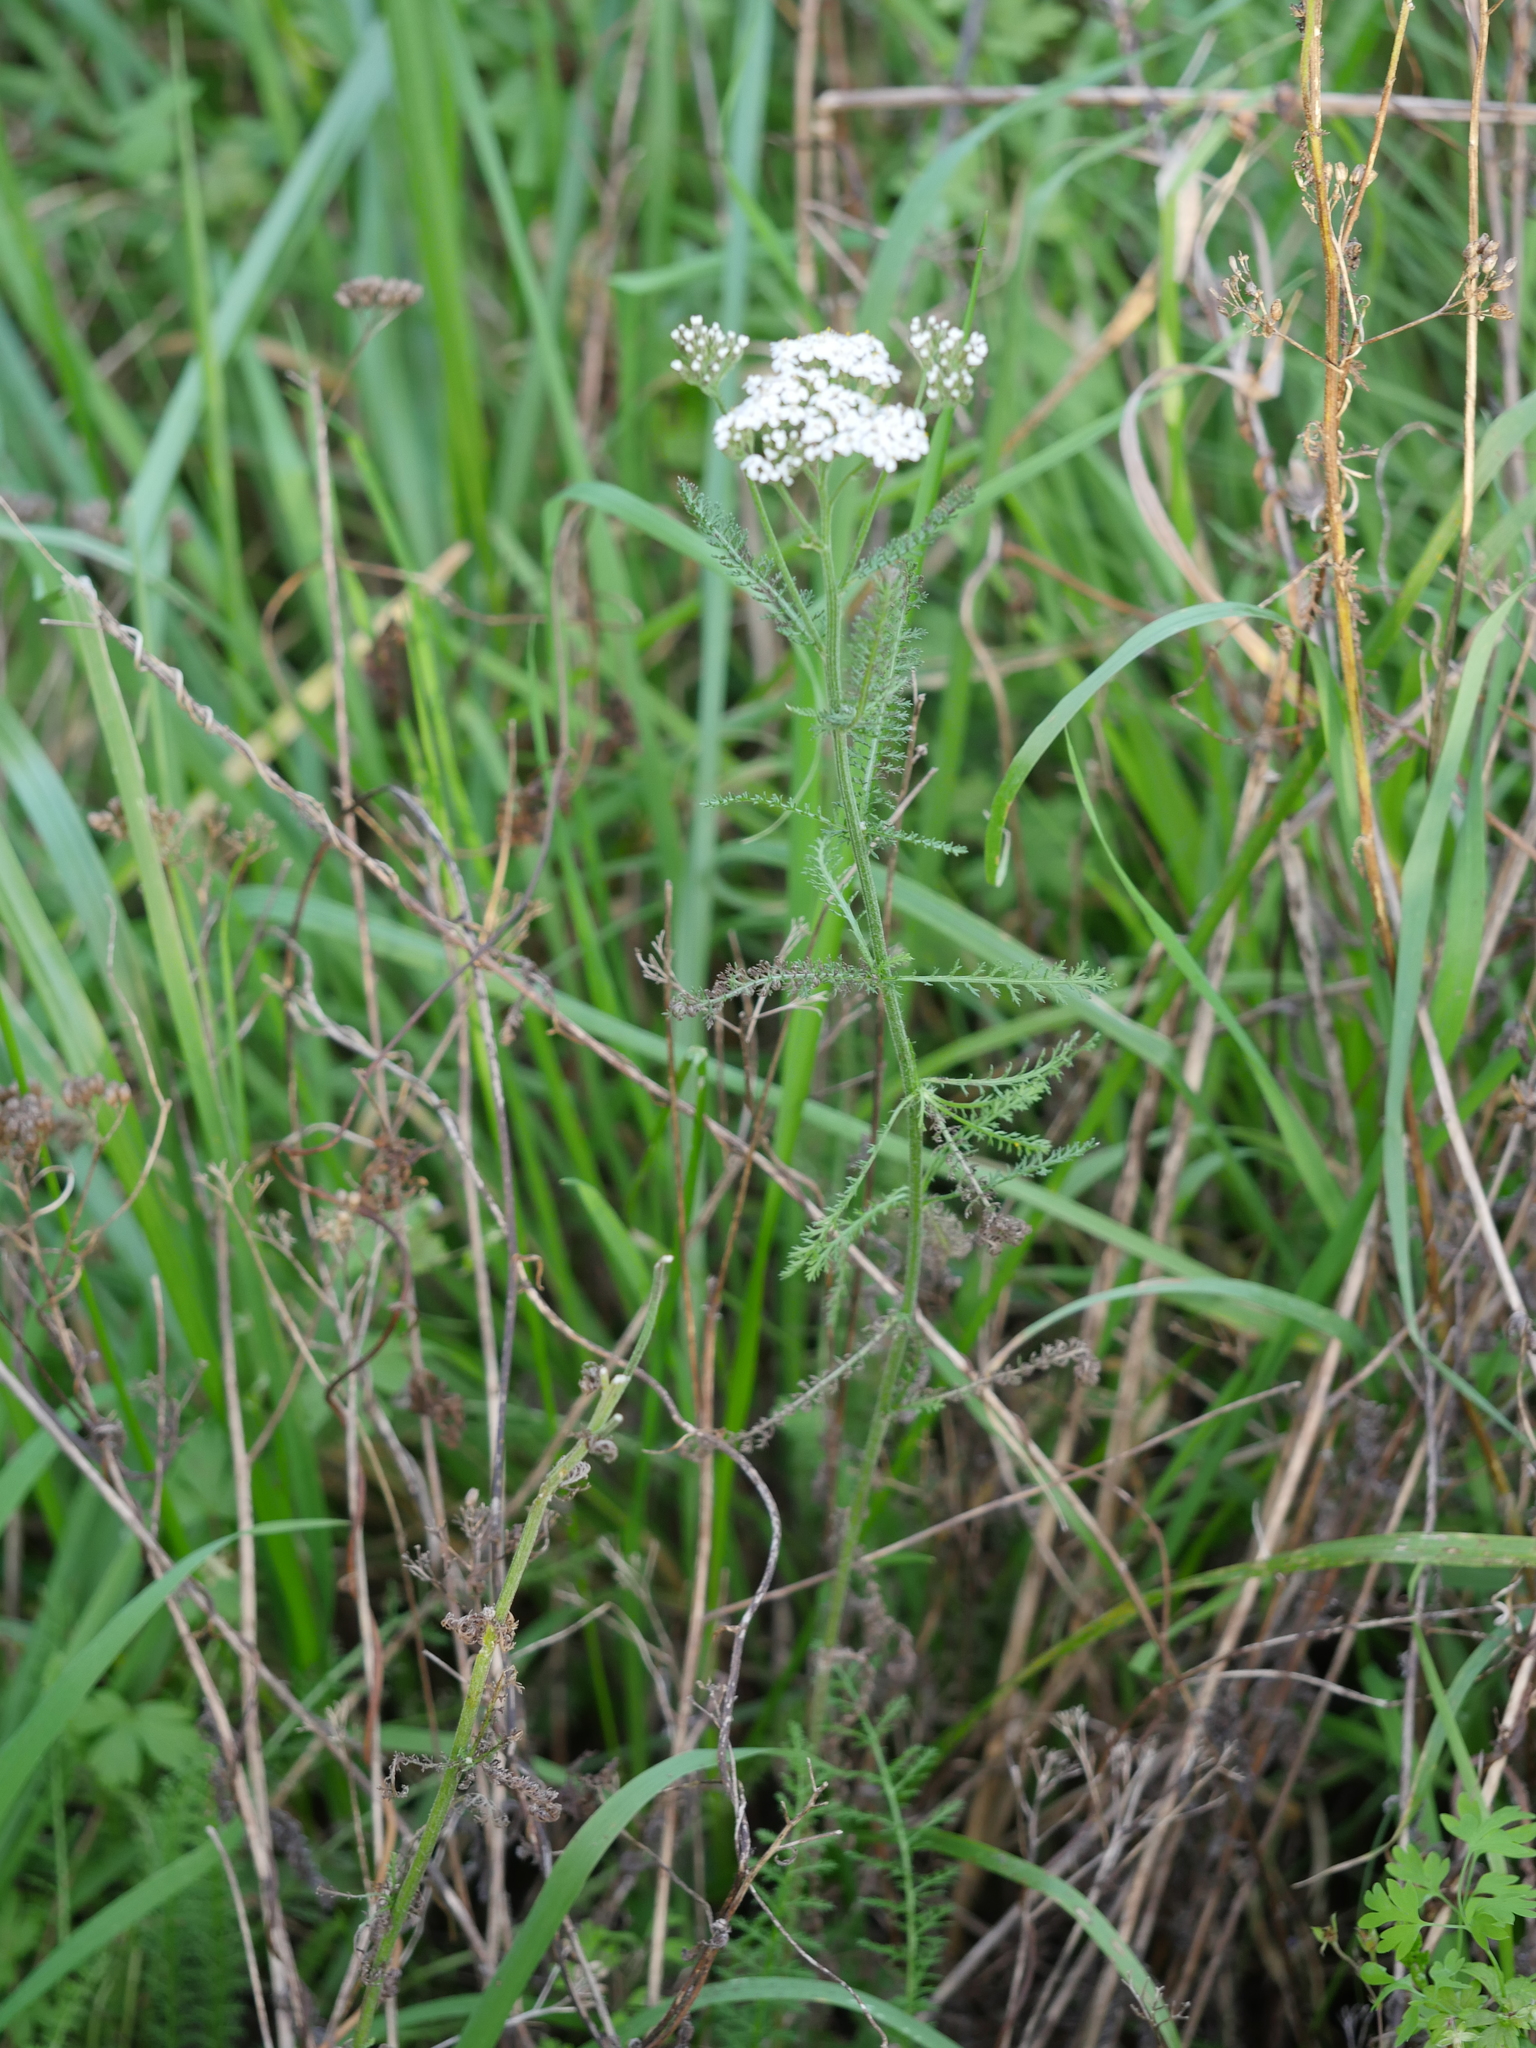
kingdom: Plantae
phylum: Tracheophyta
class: Magnoliopsida
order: Asterales
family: Asteraceae
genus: Achillea
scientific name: Achillea millefolium
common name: Yarrow
